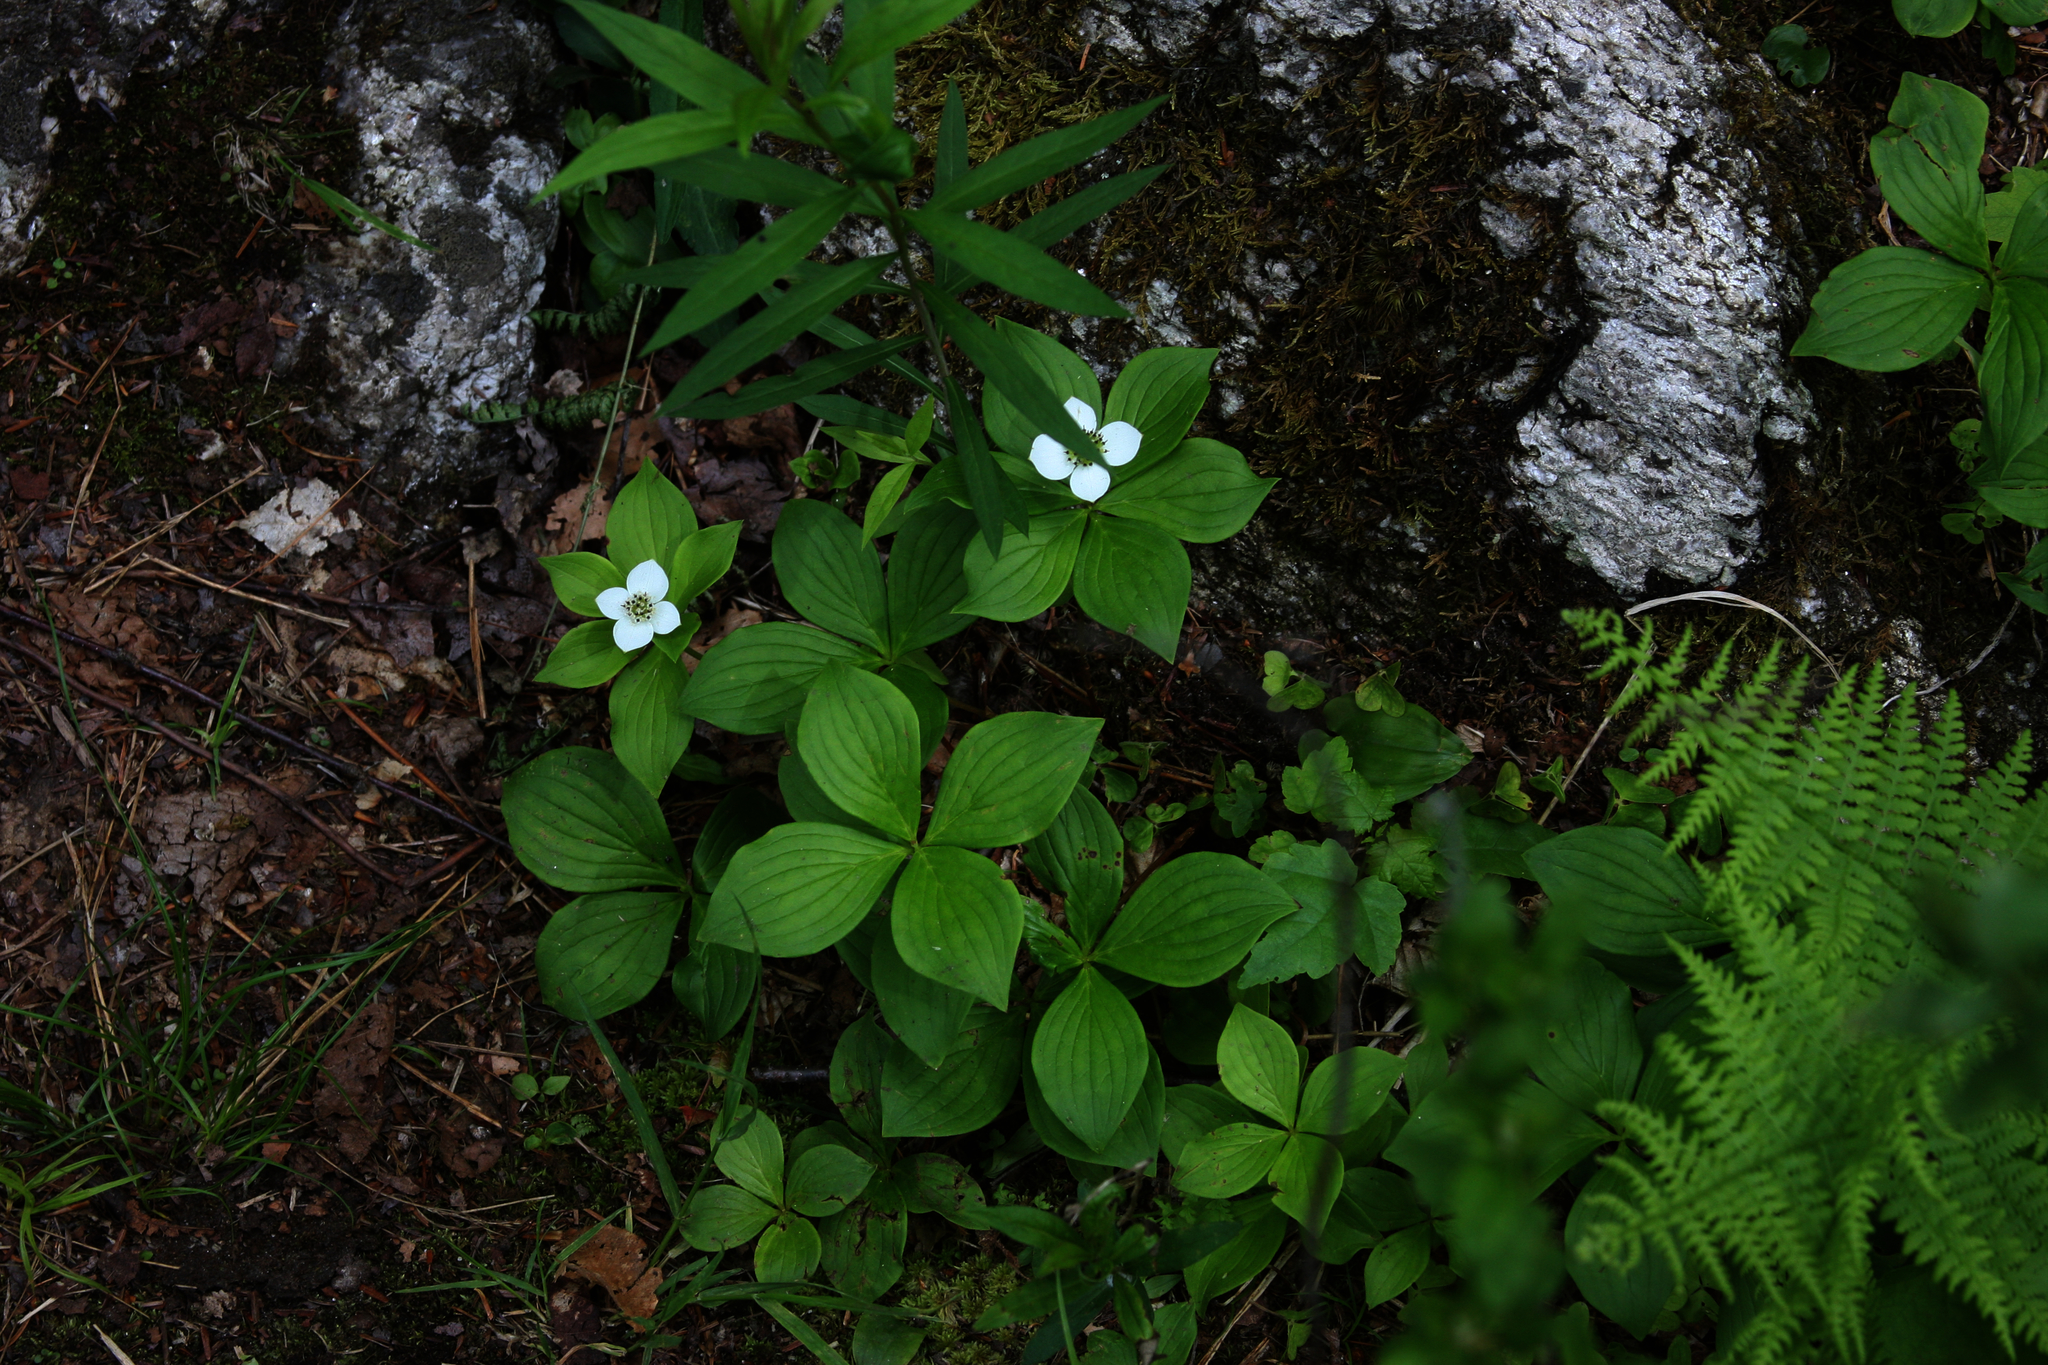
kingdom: Plantae
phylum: Tracheophyta
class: Polypodiopsida
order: Polypodiales
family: Dennstaedtiaceae
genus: Sitobolium
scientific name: Sitobolium punctilobum
